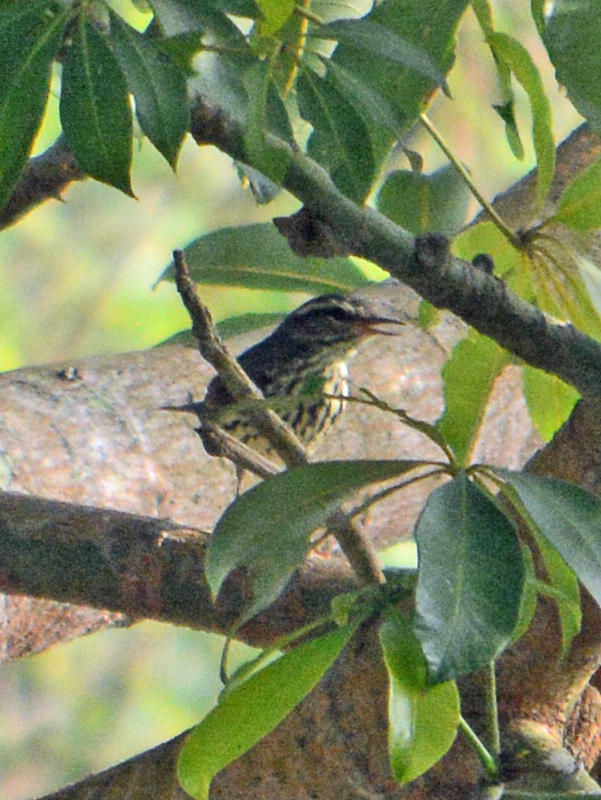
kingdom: Animalia
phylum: Chordata
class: Aves
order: Passeriformes
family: Parulidae
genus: Parkesia
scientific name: Parkesia noveboracensis
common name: Northern waterthrush
